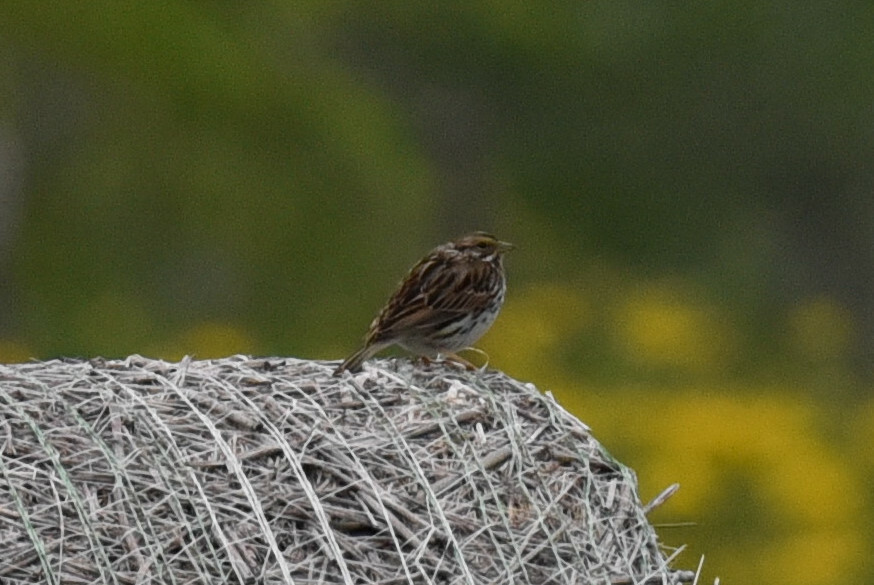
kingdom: Animalia
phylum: Chordata
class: Aves
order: Passeriformes
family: Passerellidae
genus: Passerculus
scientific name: Passerculus sandwichensis
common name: Savannah sparrow
